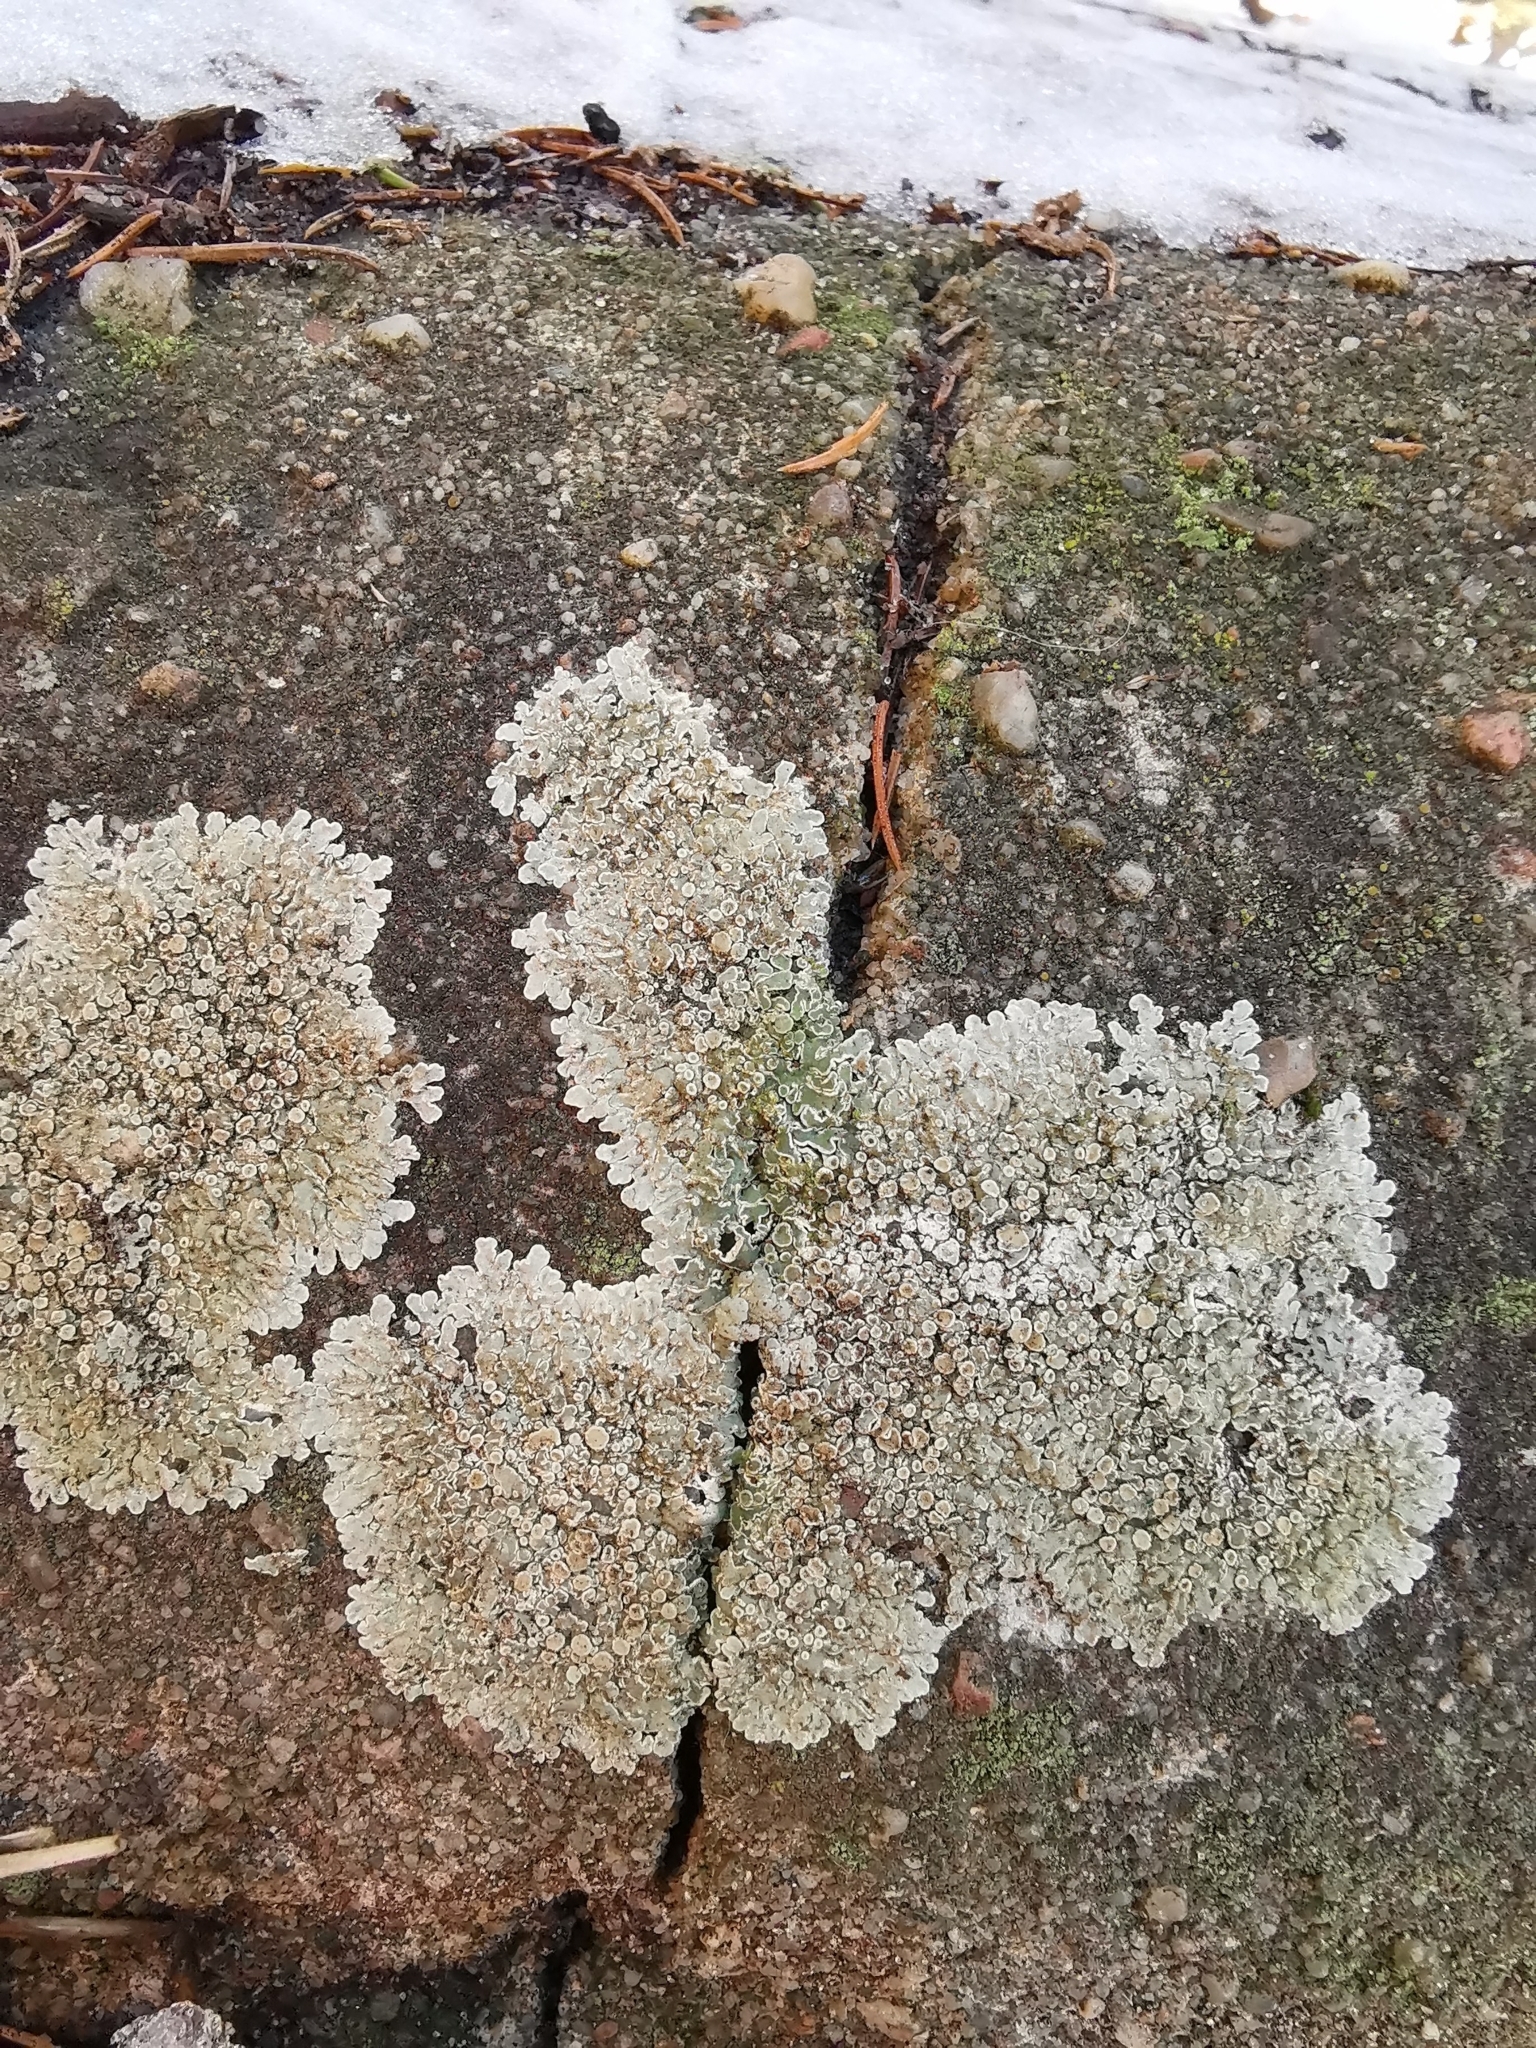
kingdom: Fungi
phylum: Ascomycota
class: Lecanoromycetes
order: Lecanorales
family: Lecanoraceae
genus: Protoparmeliopsis
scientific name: Protoparmeliopsis muralis
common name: Stonewall rim lichen
